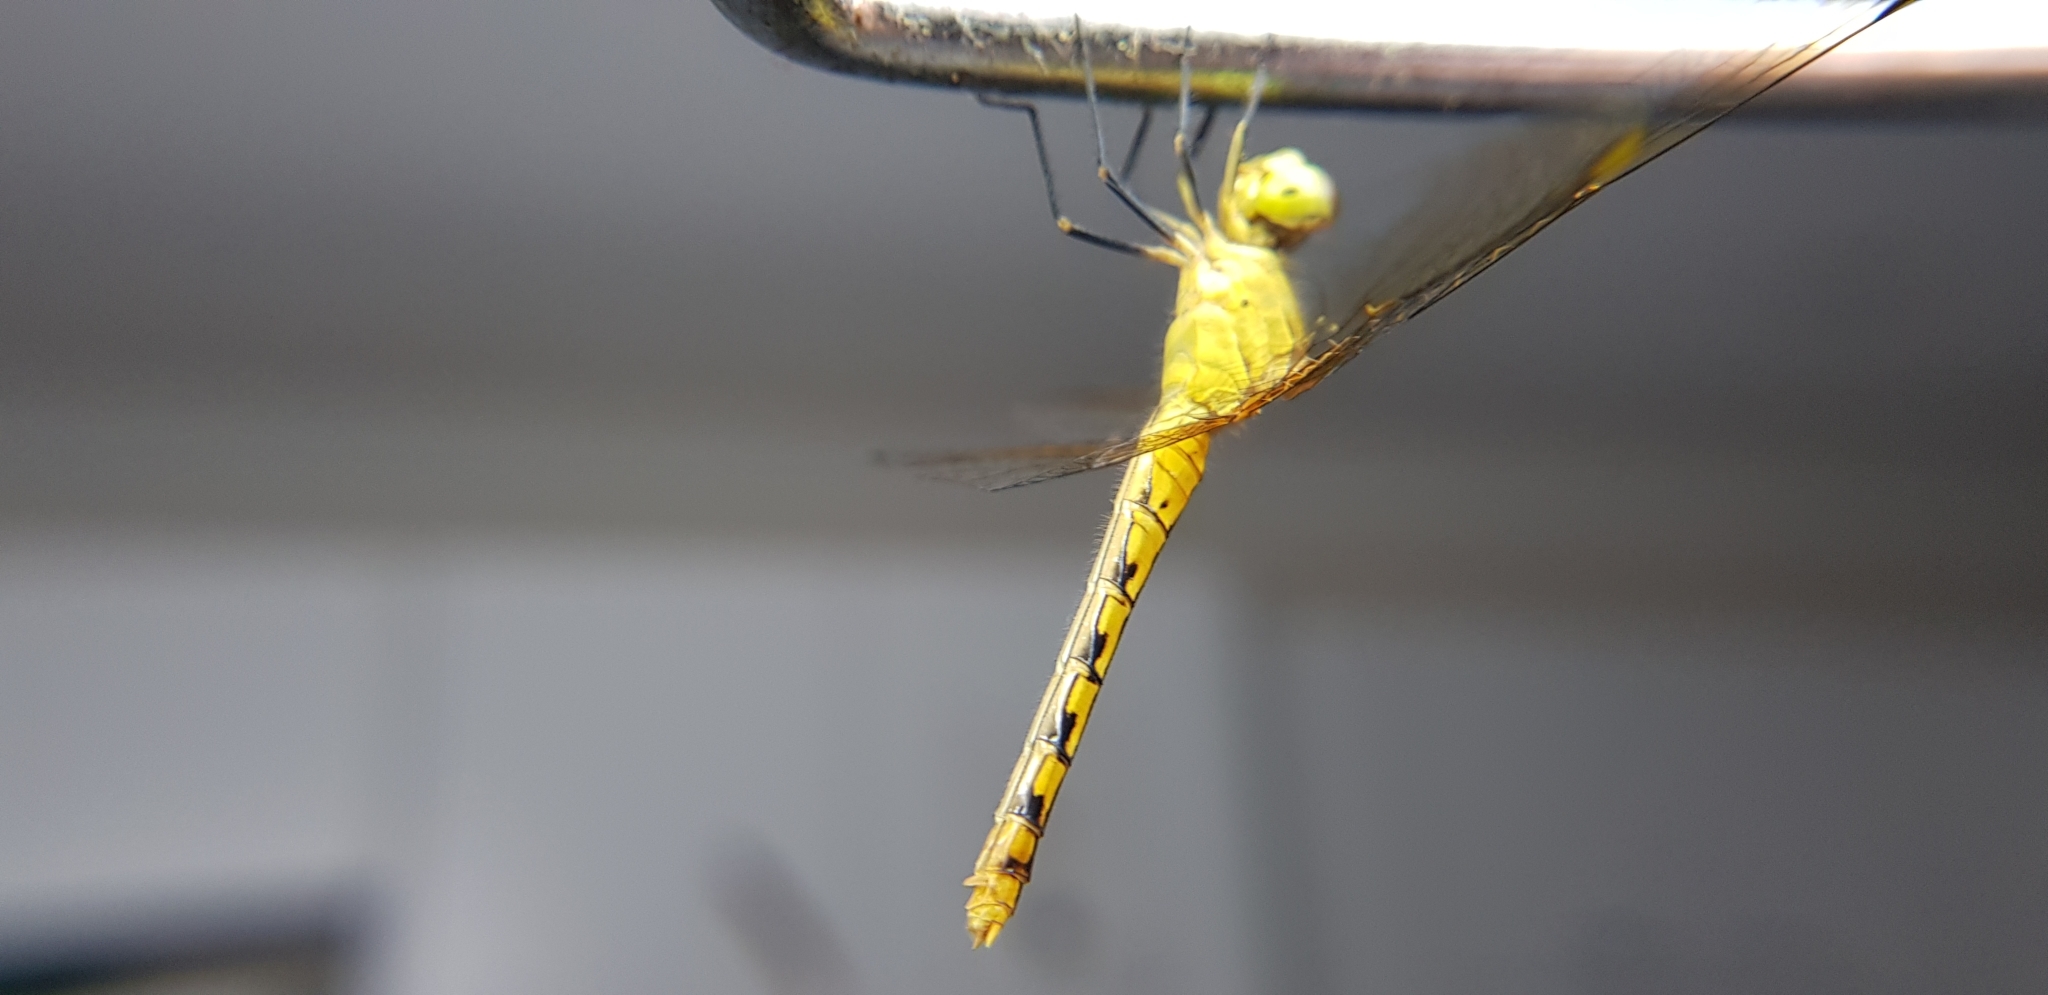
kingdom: Animalia
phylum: Arthropoda
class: Insecta
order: Odonata
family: Libellulidae
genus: Diplacodes
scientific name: Diplacodes melanopsis
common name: Black-faced percher
